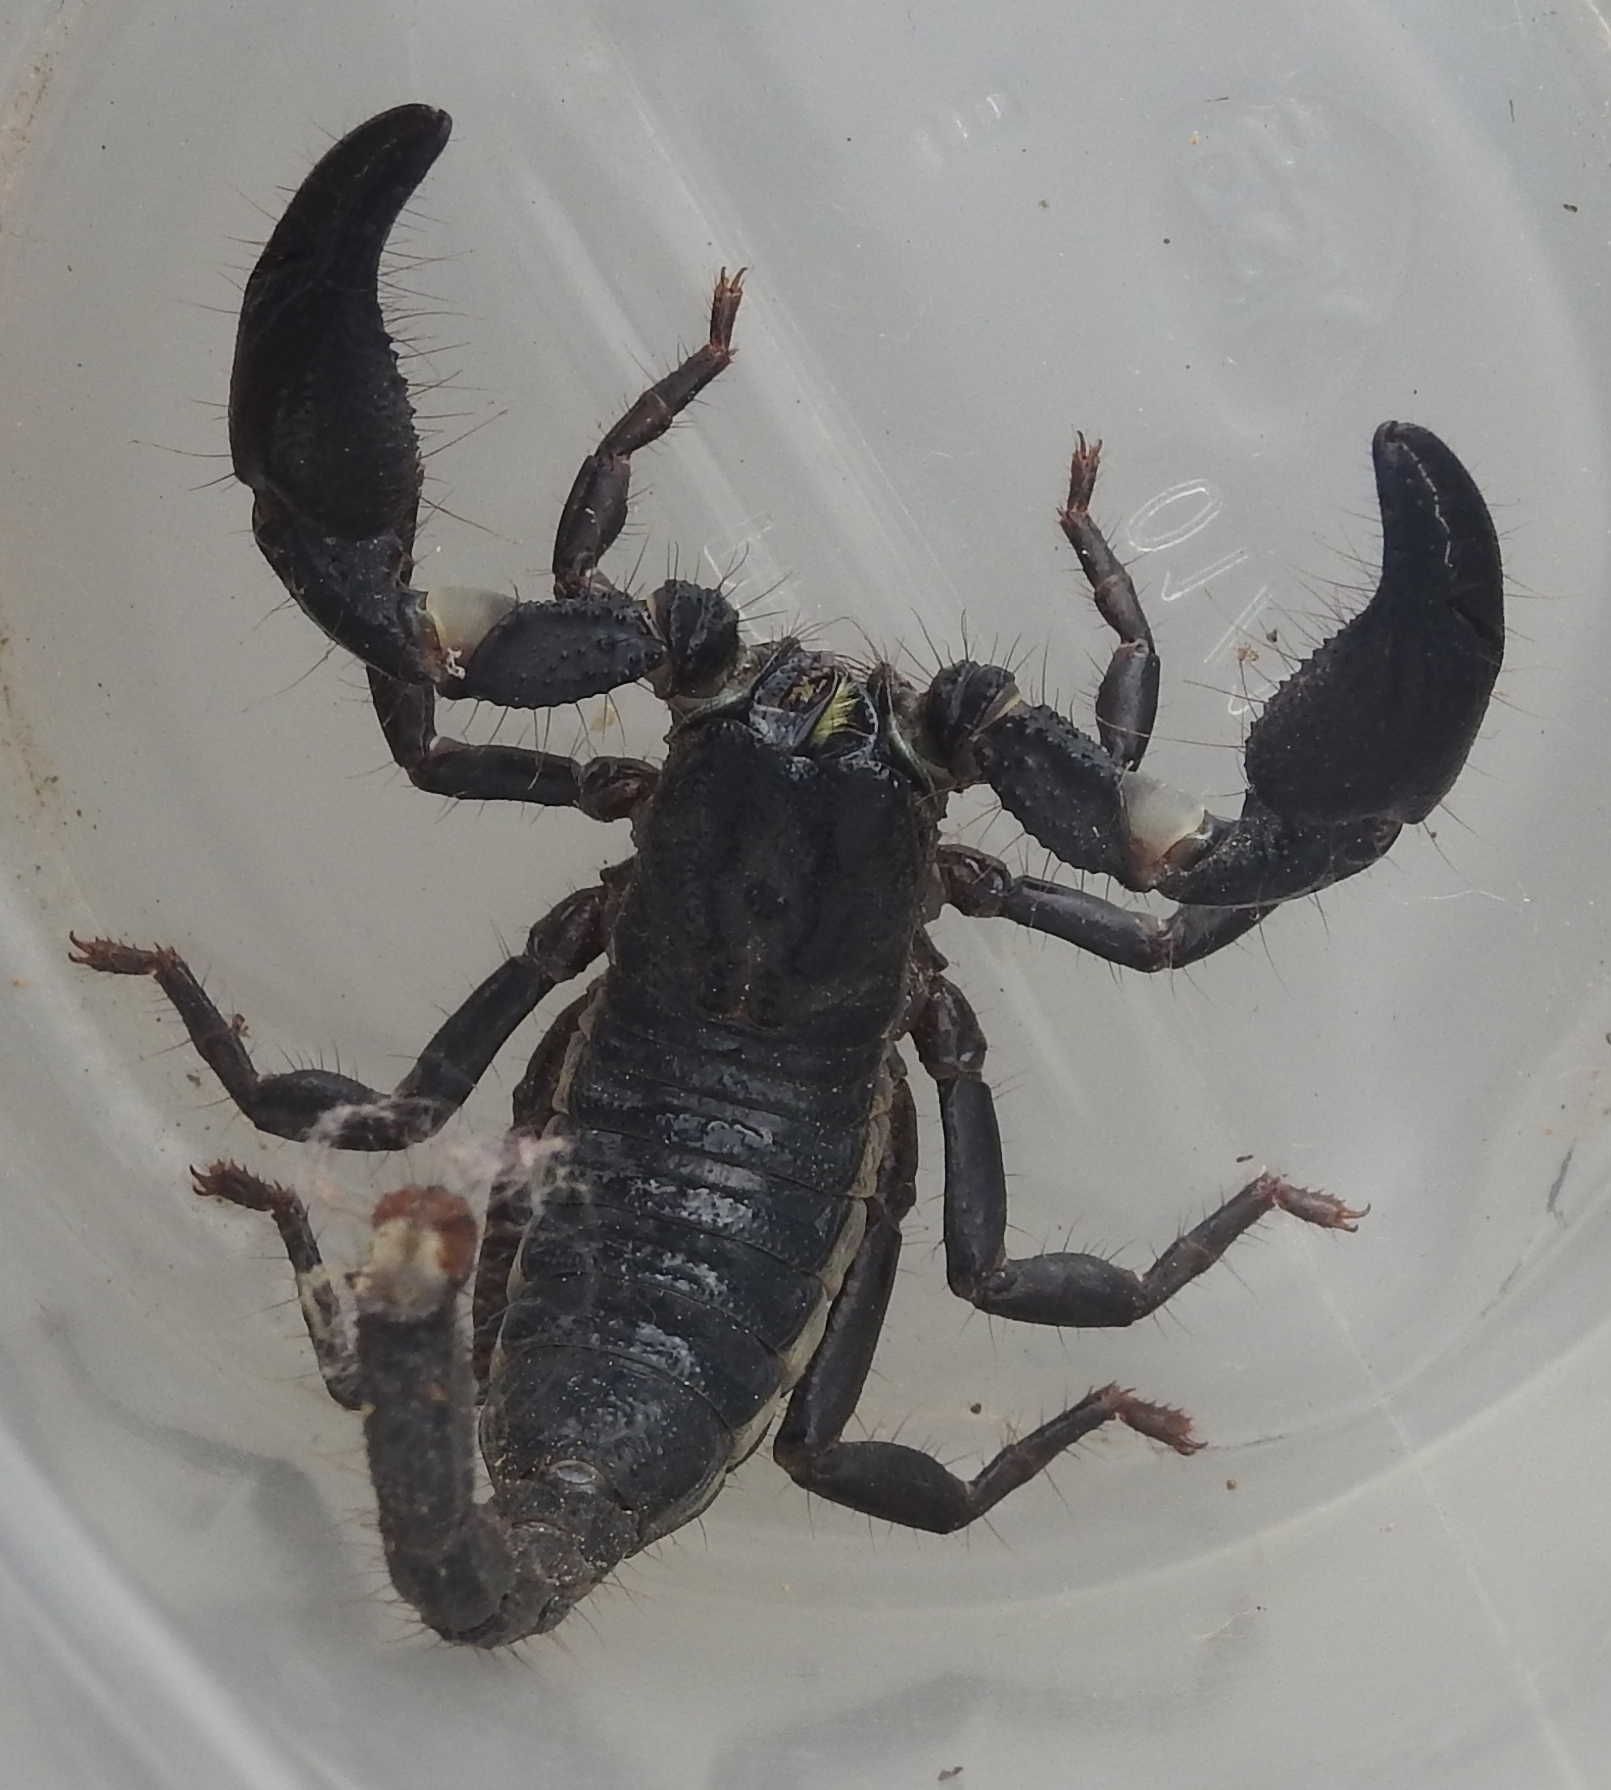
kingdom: Animalia
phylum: Arthropoda
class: Arachnida
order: Scorpiones
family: Scorpionidae
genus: Sahyadrimetrus
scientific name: Sahyadrimetrus scaber
